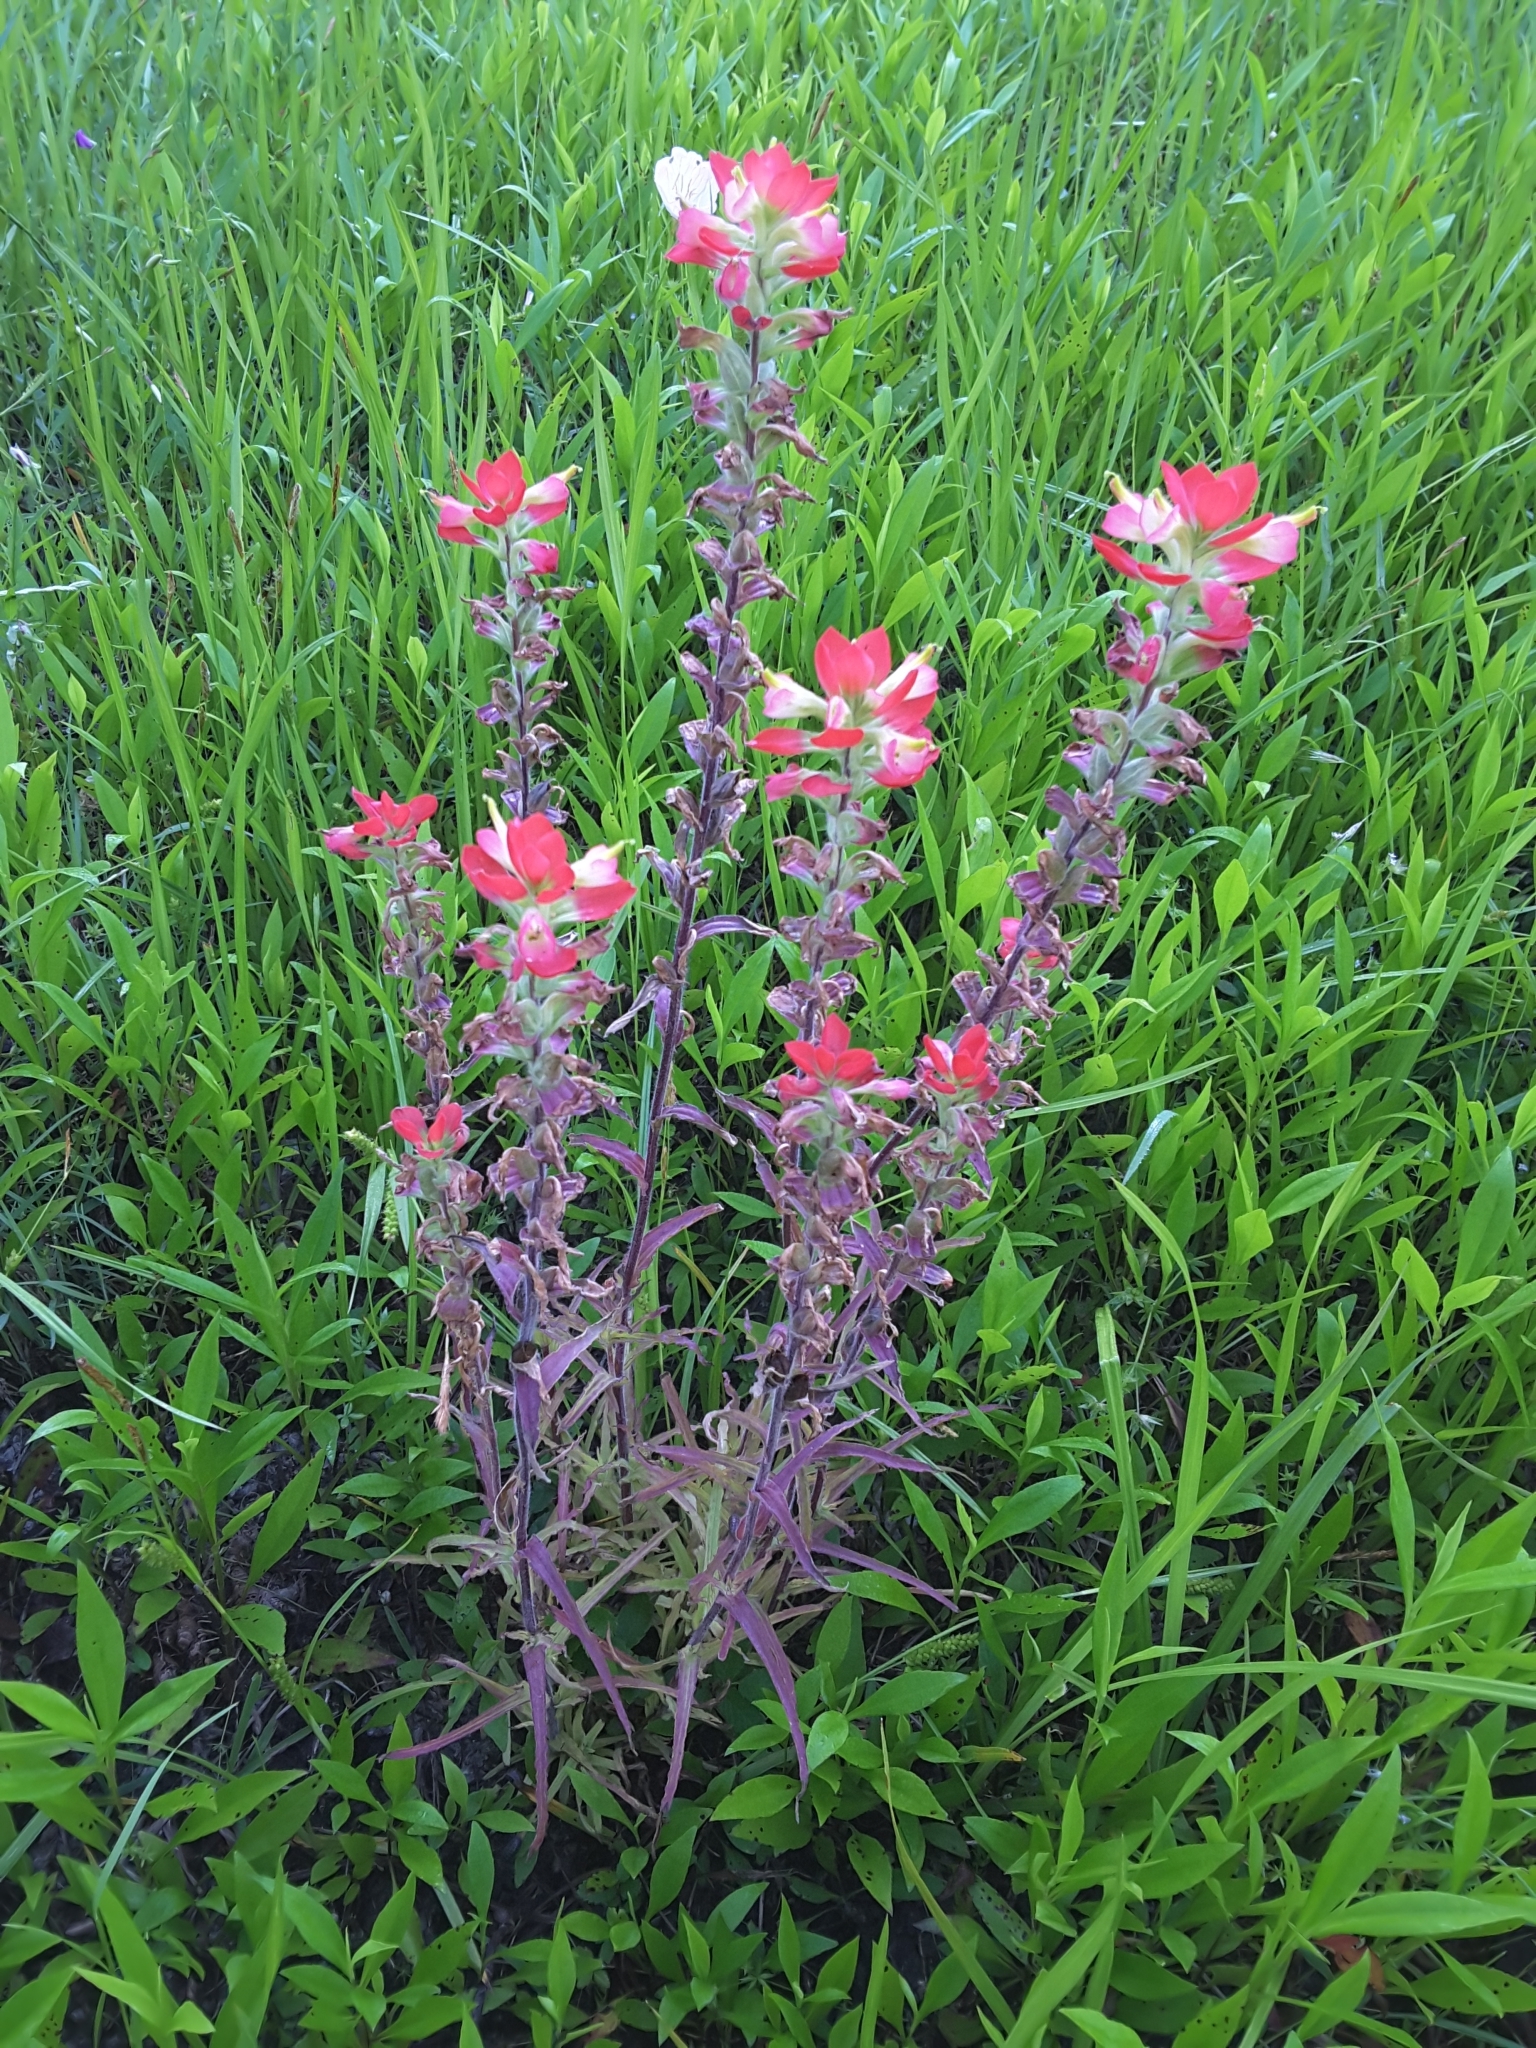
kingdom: Plantae
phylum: Tracheophyta
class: Magnoliopsida
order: Lamiales
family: Orobanchaceae
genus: Castilleja
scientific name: Castilleja indivisa
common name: Texas paintbrush
